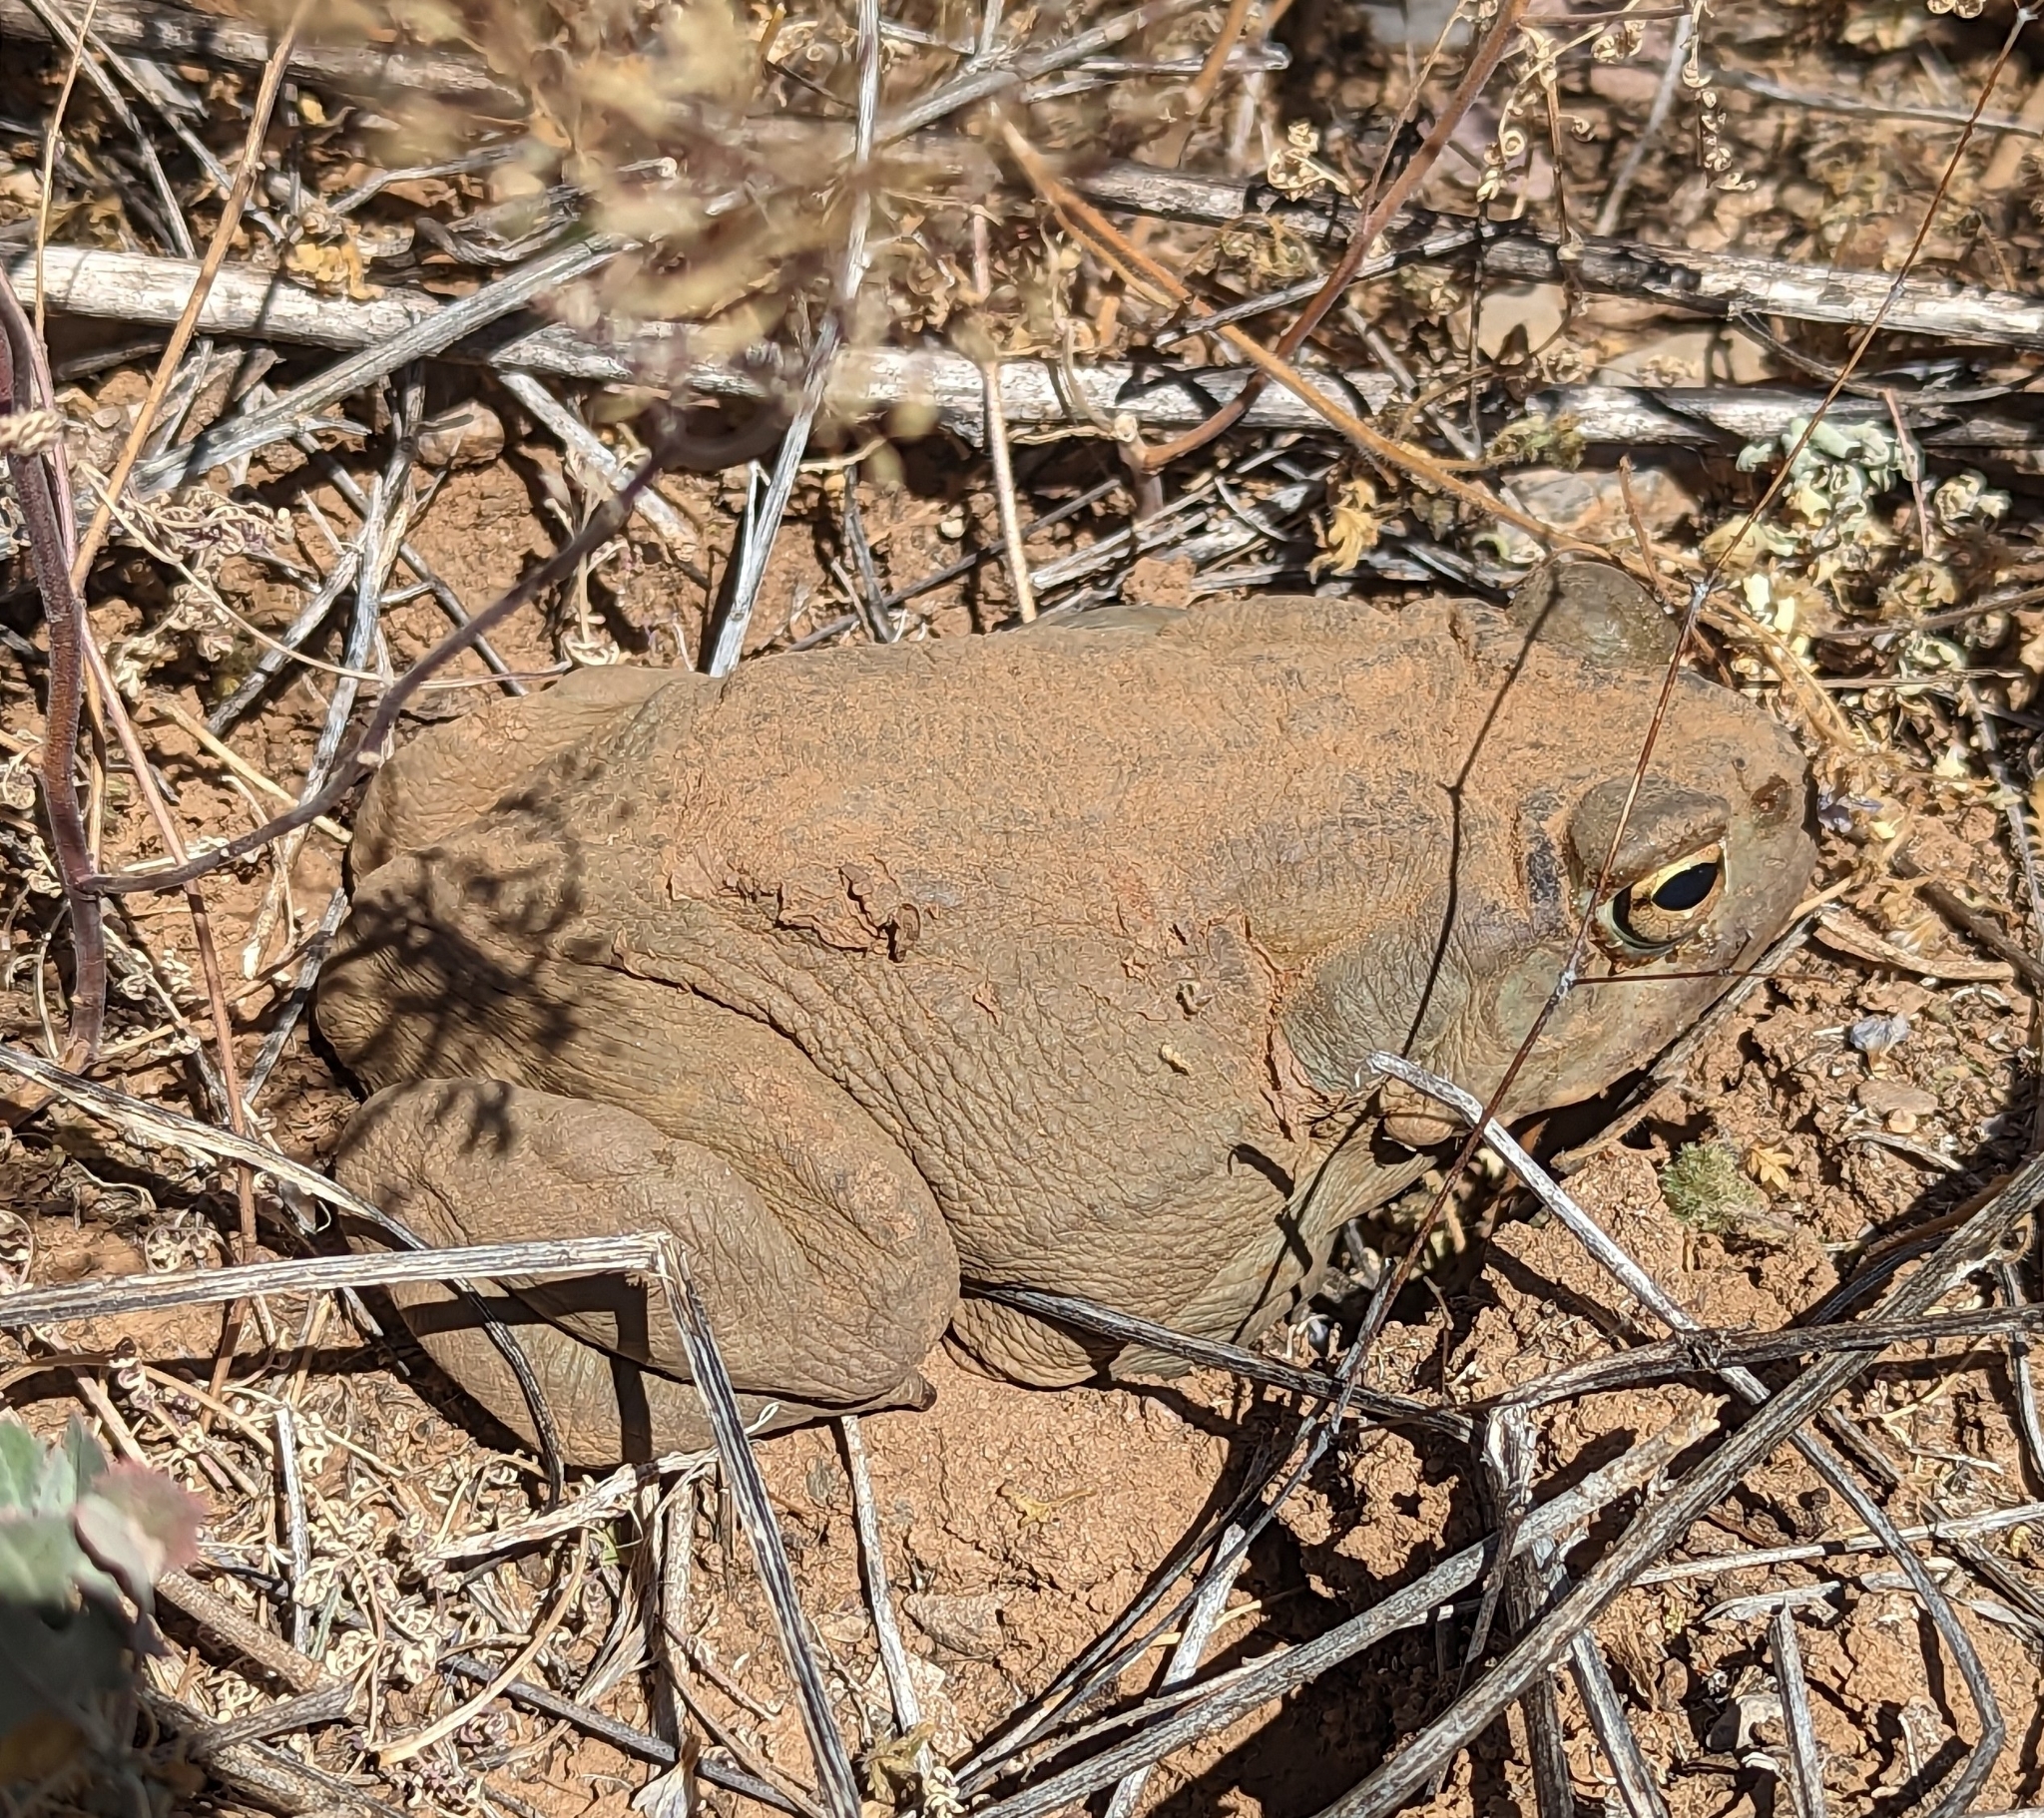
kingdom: Animalia
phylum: Chordata
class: Amphibia
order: Anura
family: Bufonidae
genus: Incilius
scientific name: Incilius alvarius
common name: Sonoran desert toad
